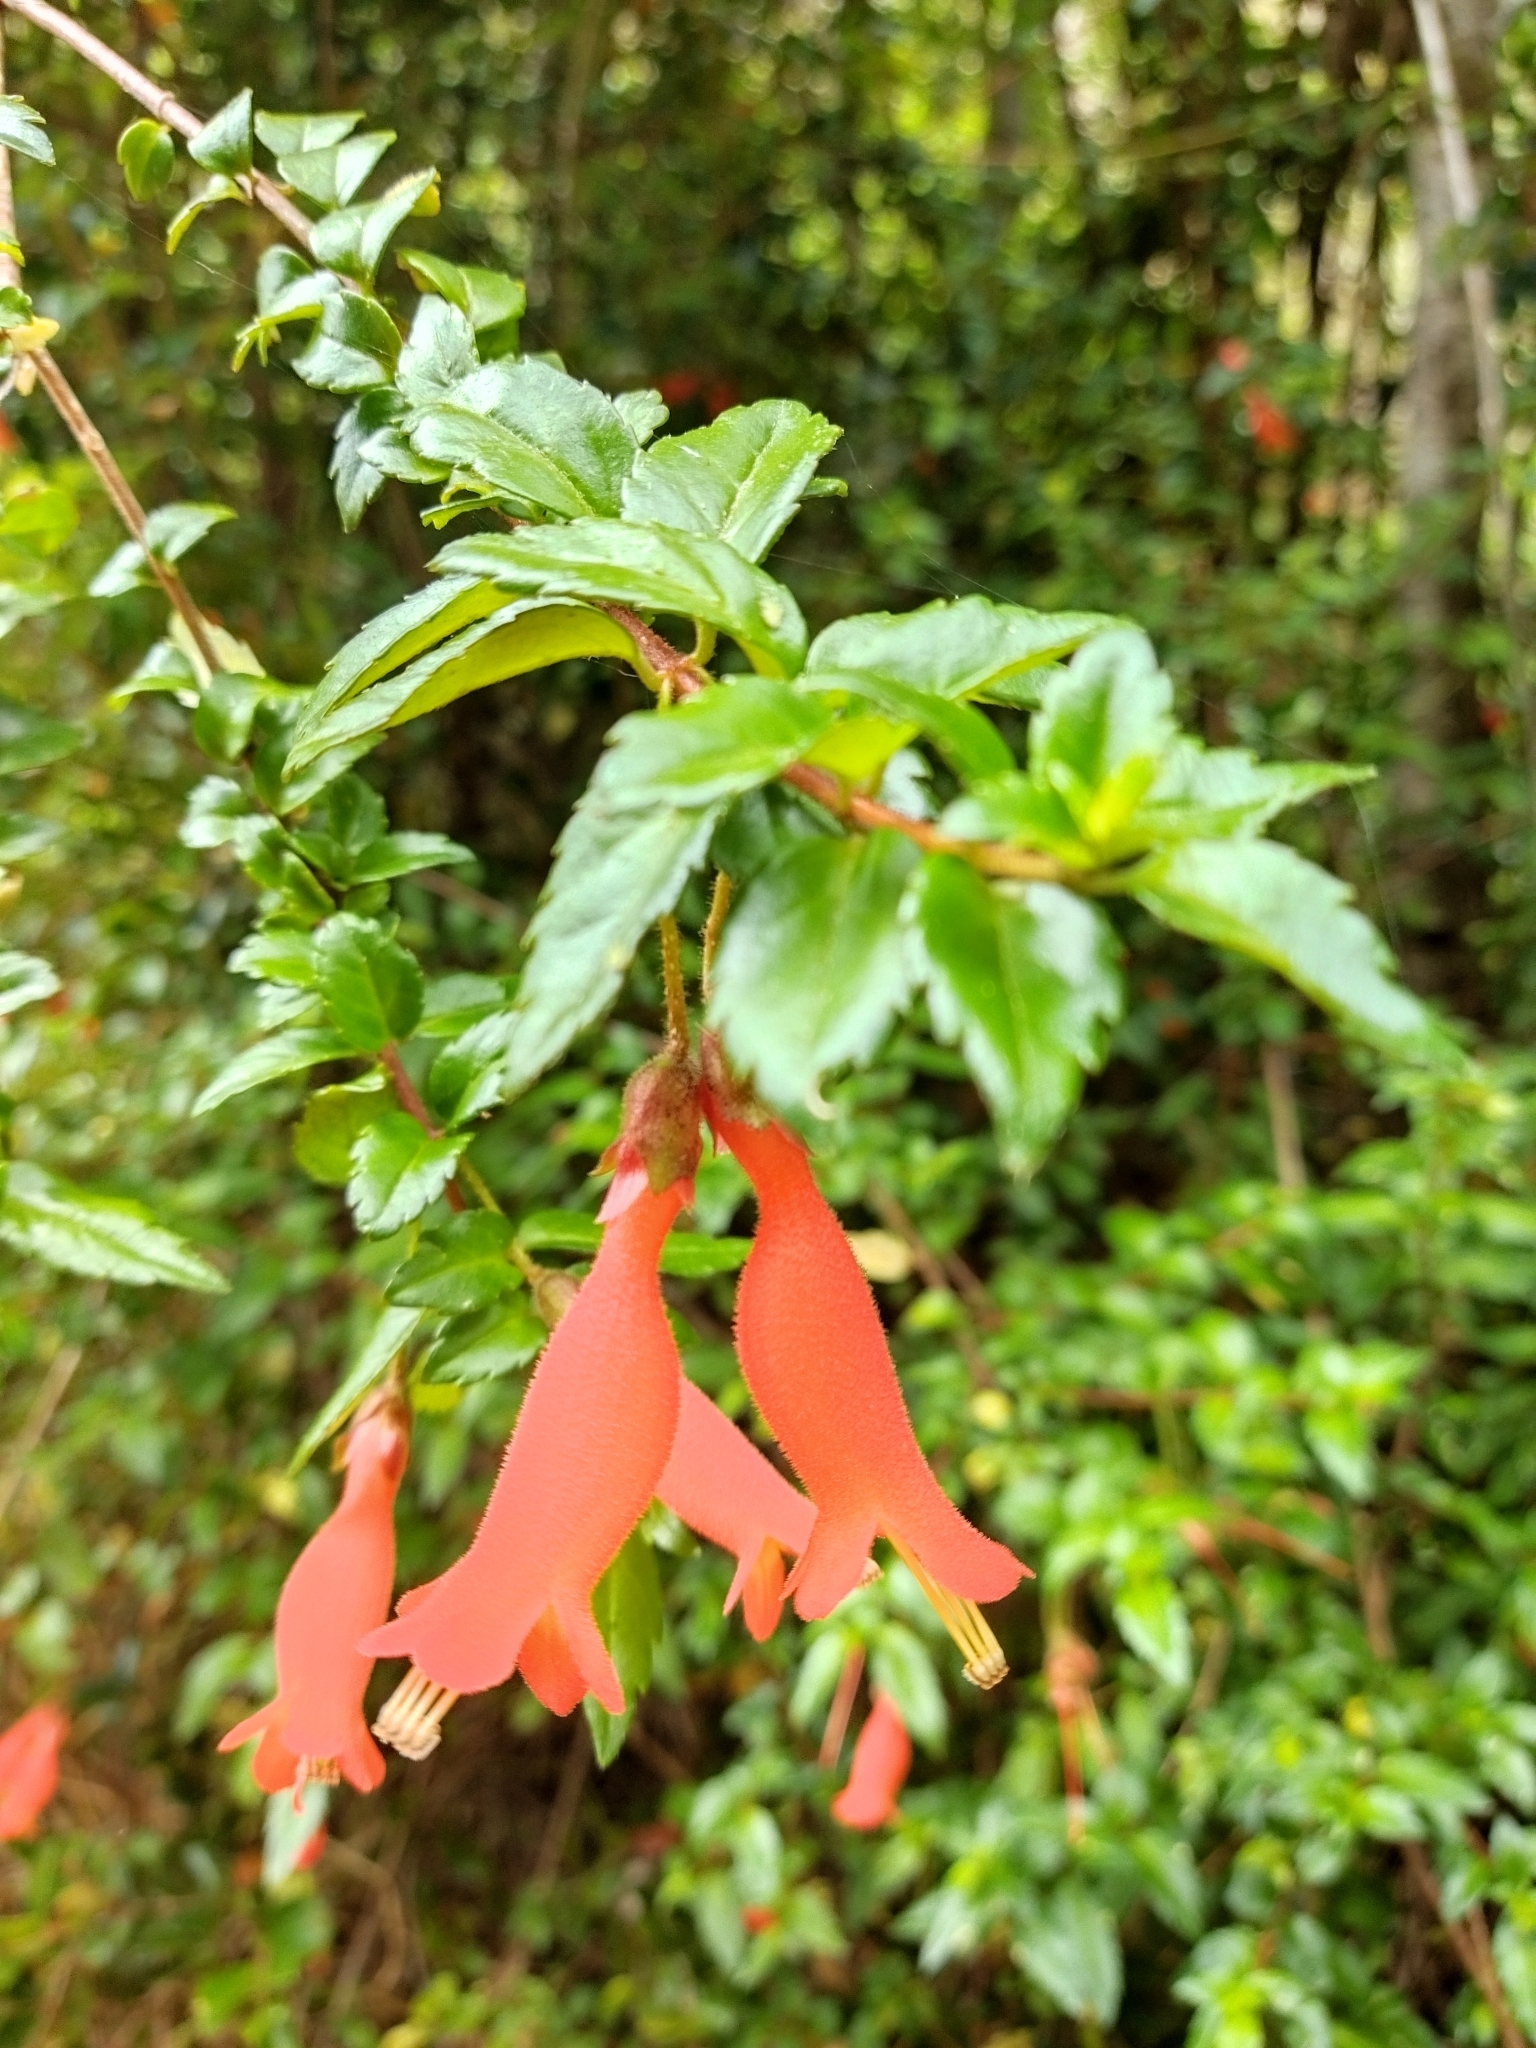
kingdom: Plantae
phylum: Tracheophyta
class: Magnoliopsida
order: Lamiales
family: Gesneriaceae
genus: Mitraria
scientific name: Mitraria coccinea
